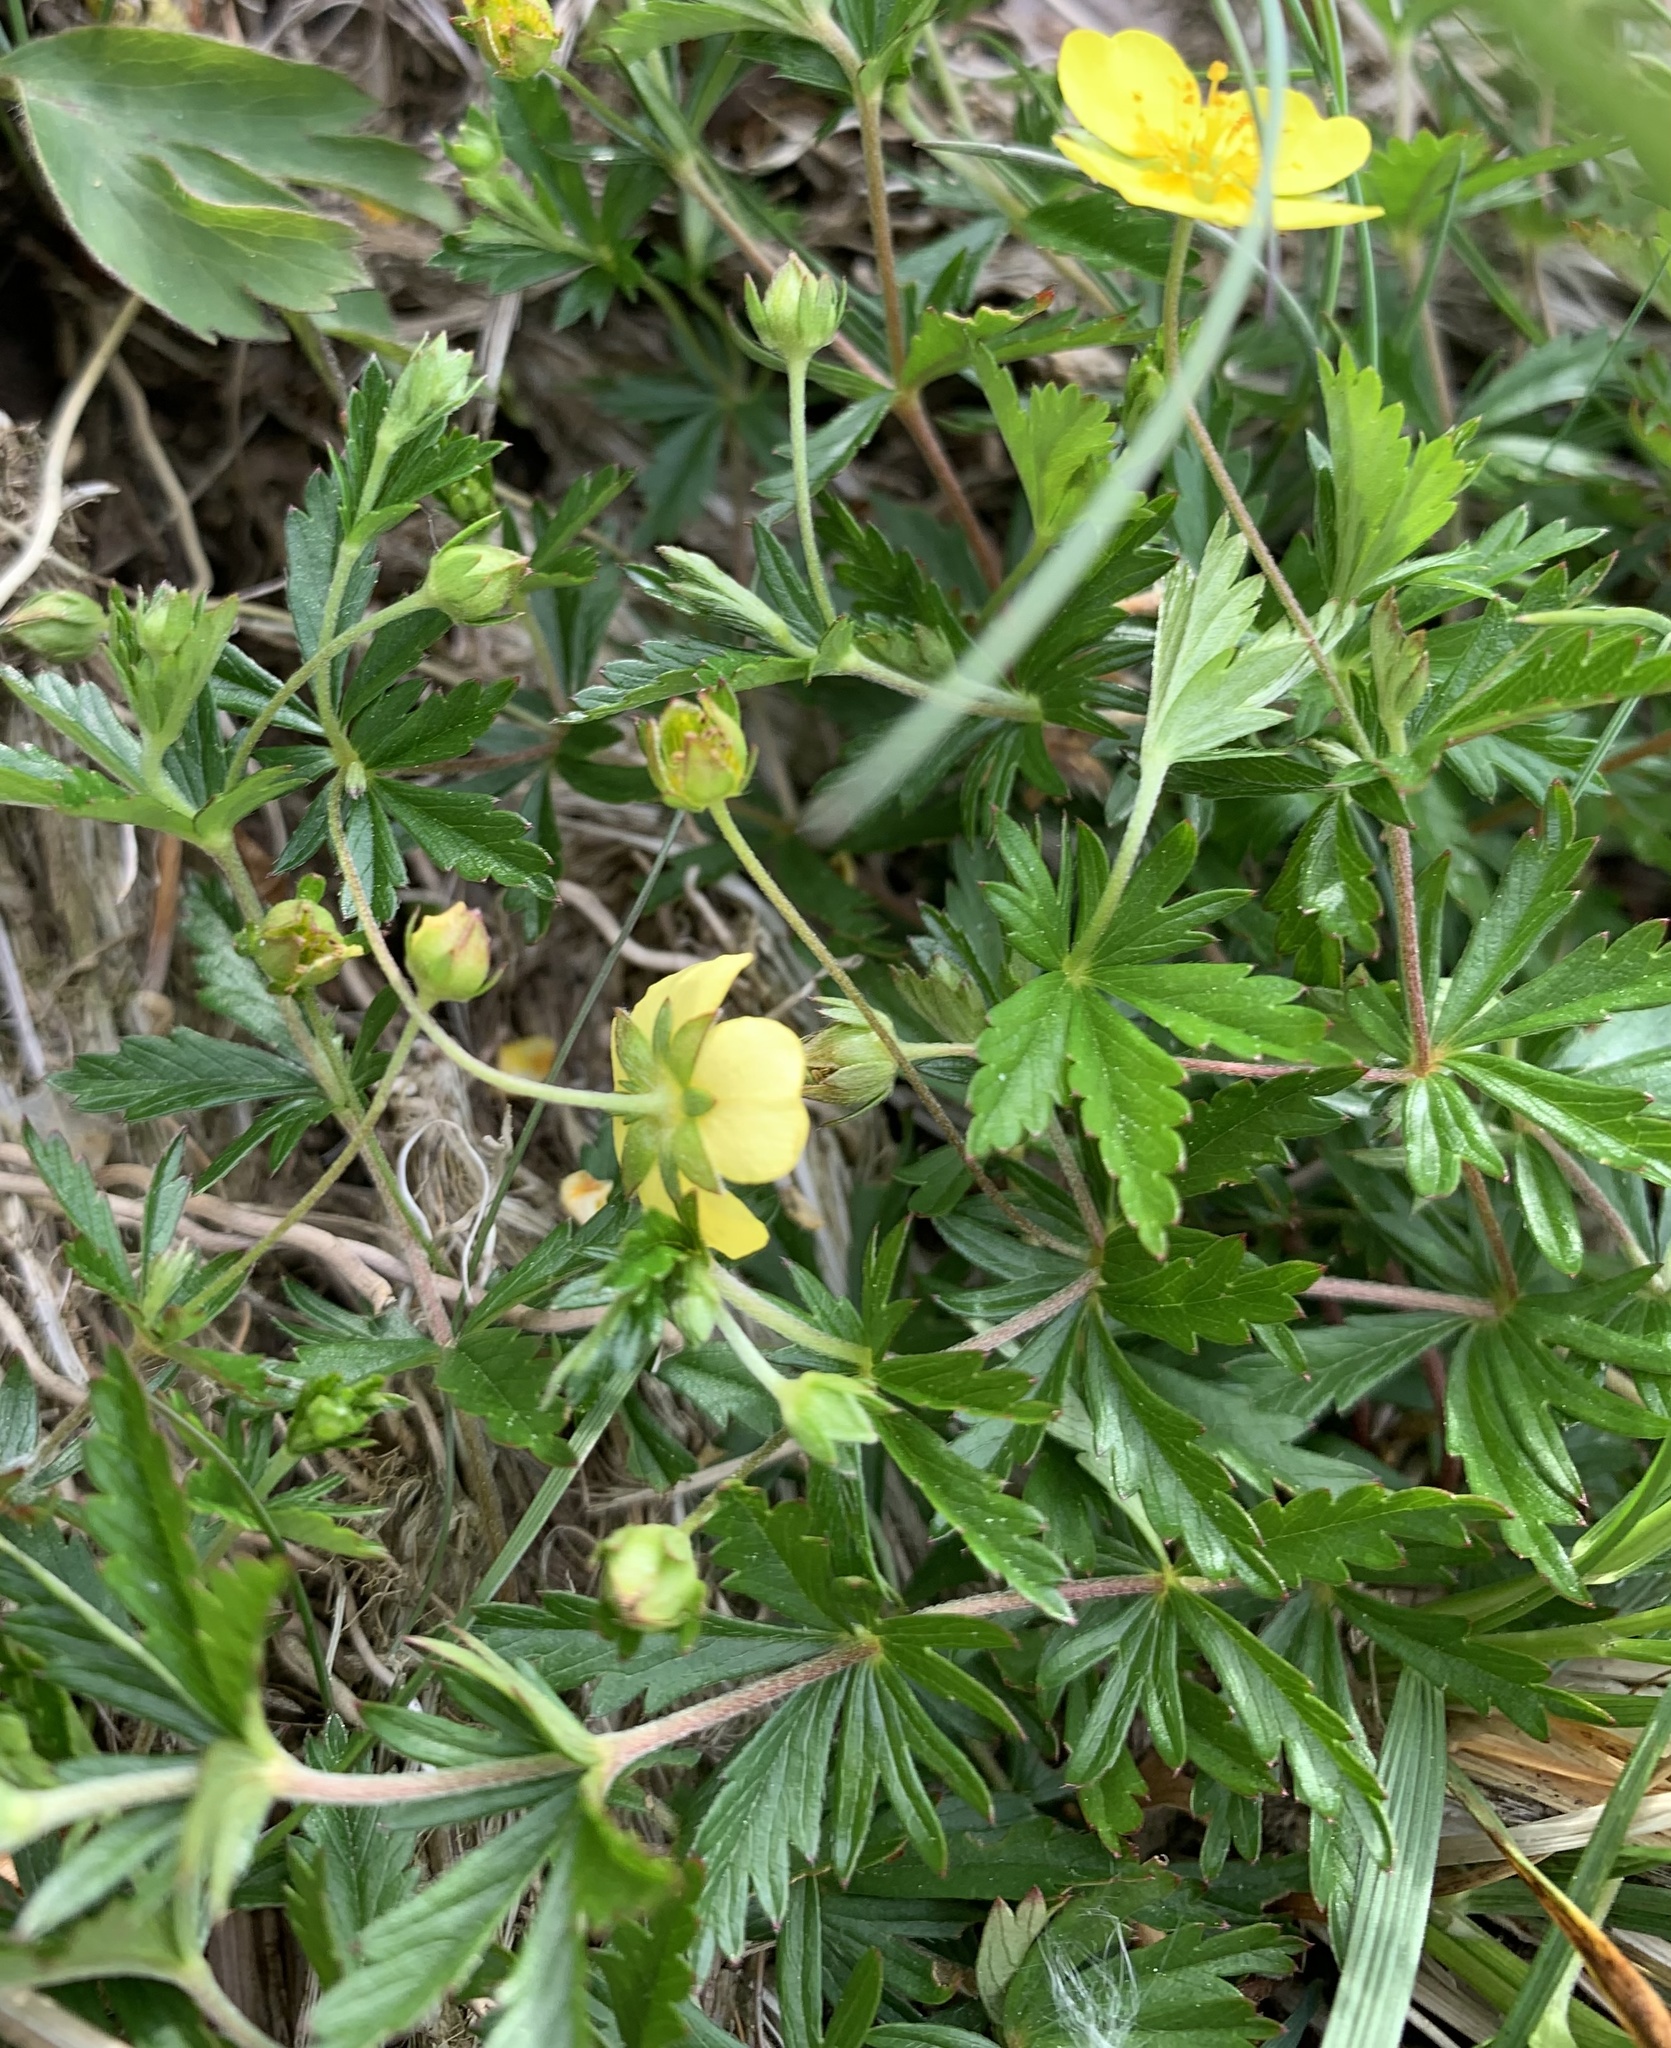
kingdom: Plantae
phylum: Tracheophyta
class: Magnoliopsida
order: Rosales
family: Rosaceae
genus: Potentilla
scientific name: Potentilla erecta
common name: Tormentil
